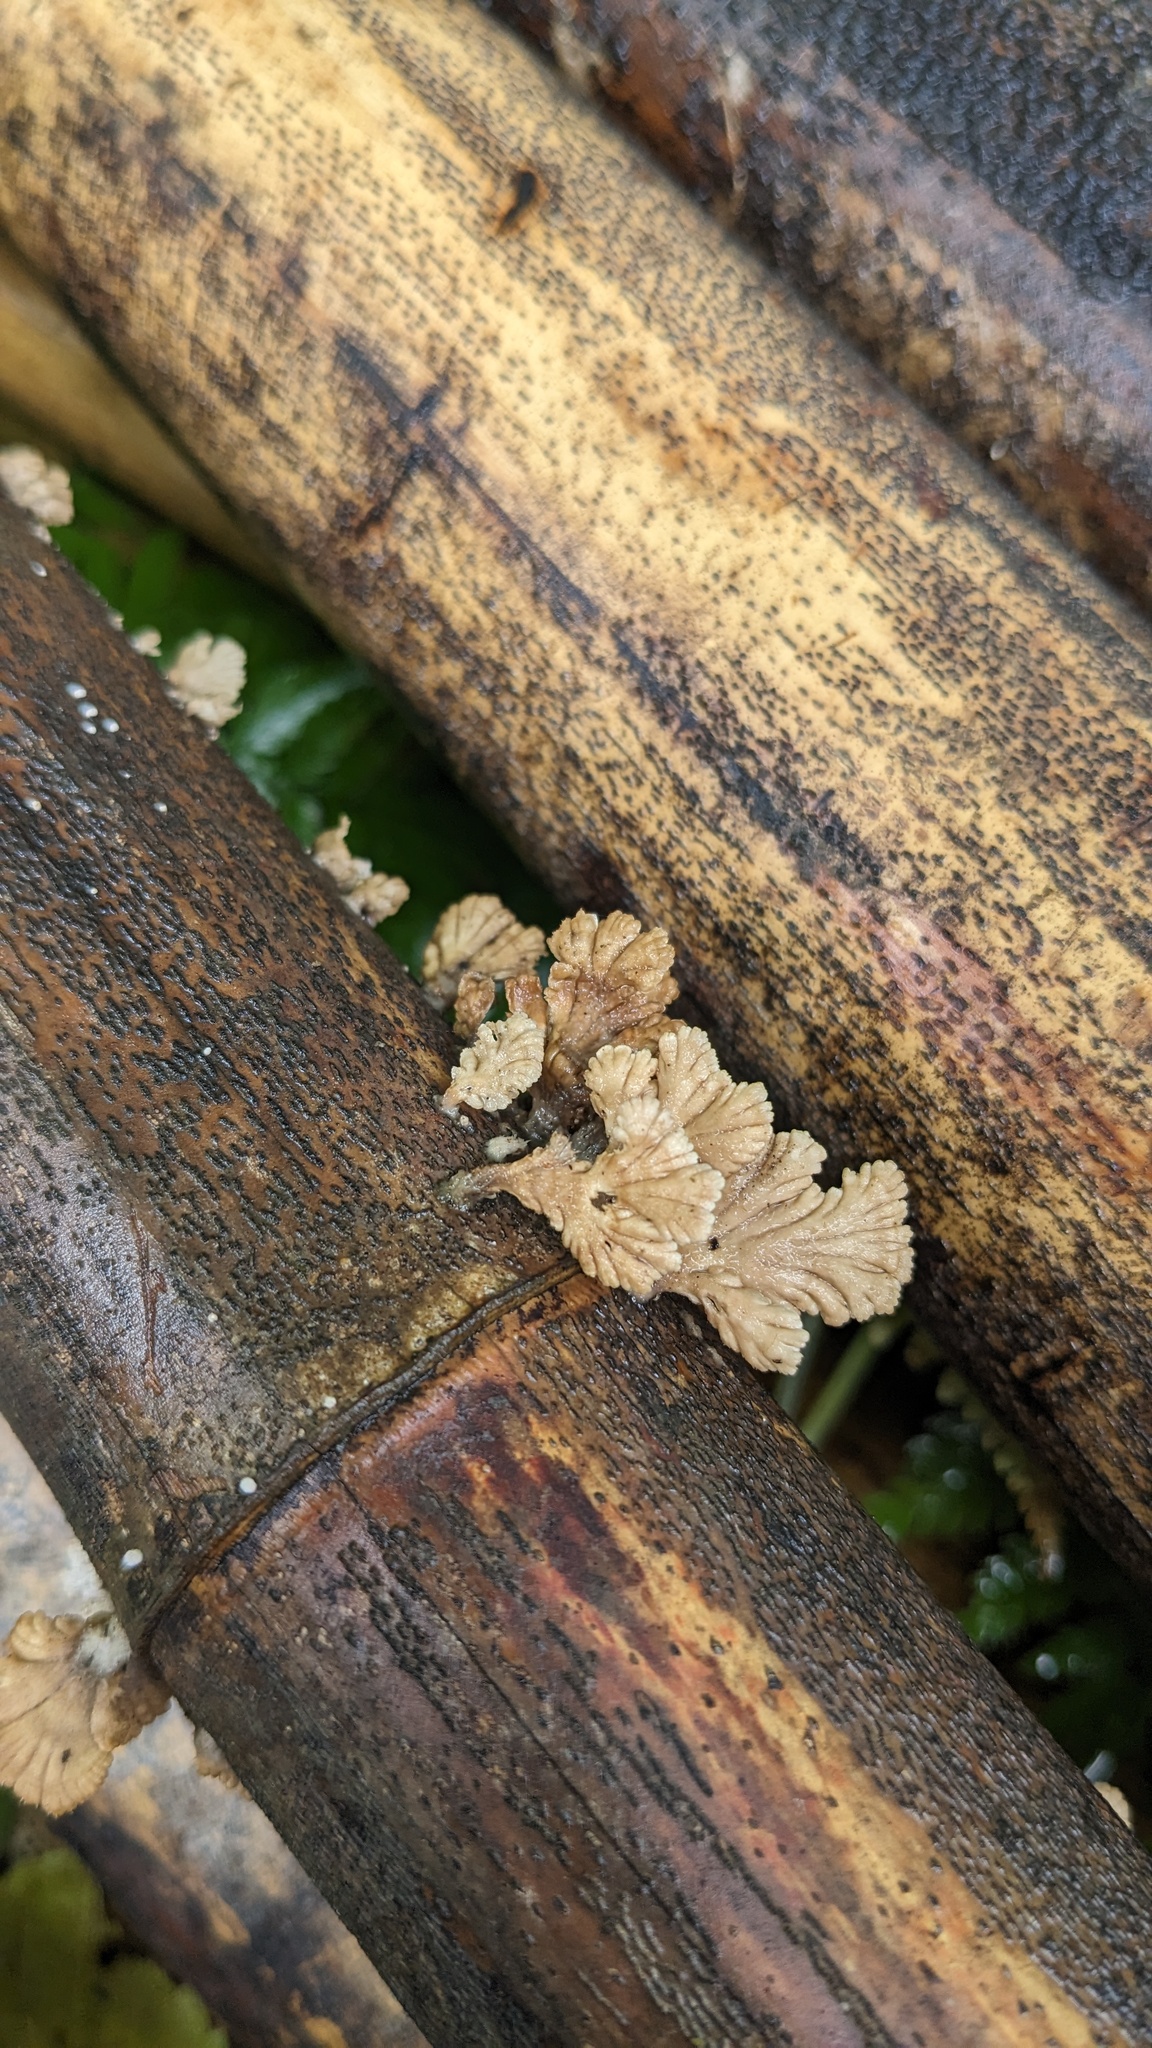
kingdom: Fungi
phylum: Basidiomycota
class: Agaricomycetes
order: Agaricales
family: Schizophyllaceae
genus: Schizophyllum
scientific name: Schizophyllum commune
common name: Common porecrust
